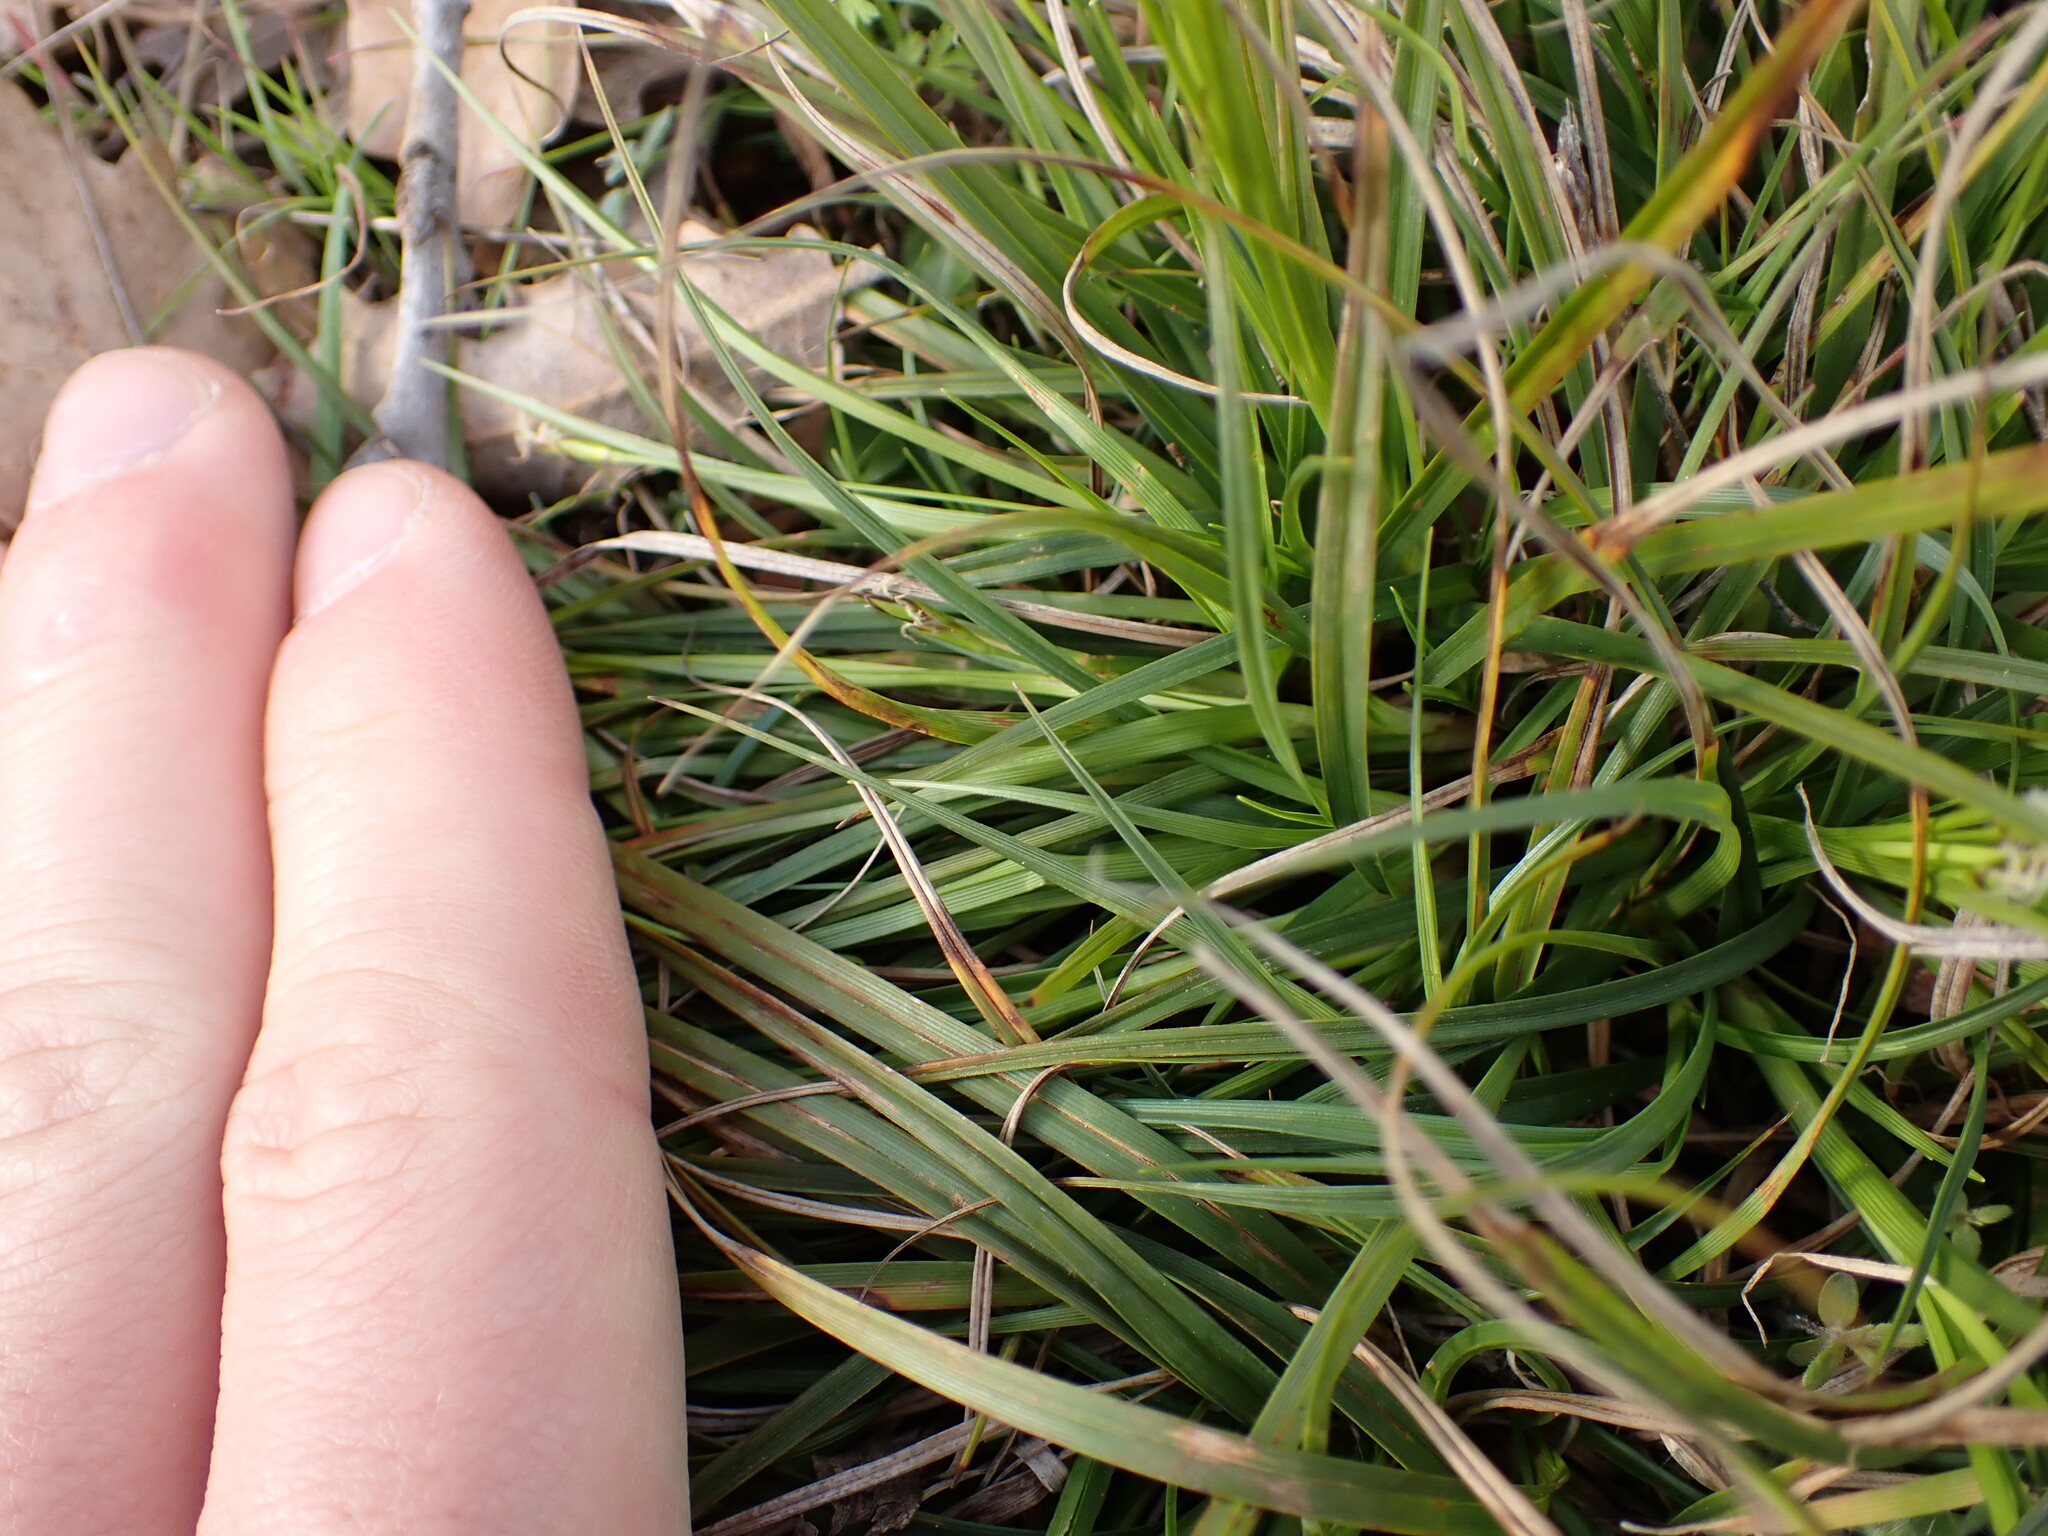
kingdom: Plantae
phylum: Tracheophyta
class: Liliopsida
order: Poales
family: Cyperaceae
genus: Carex
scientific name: Carex halleriana
